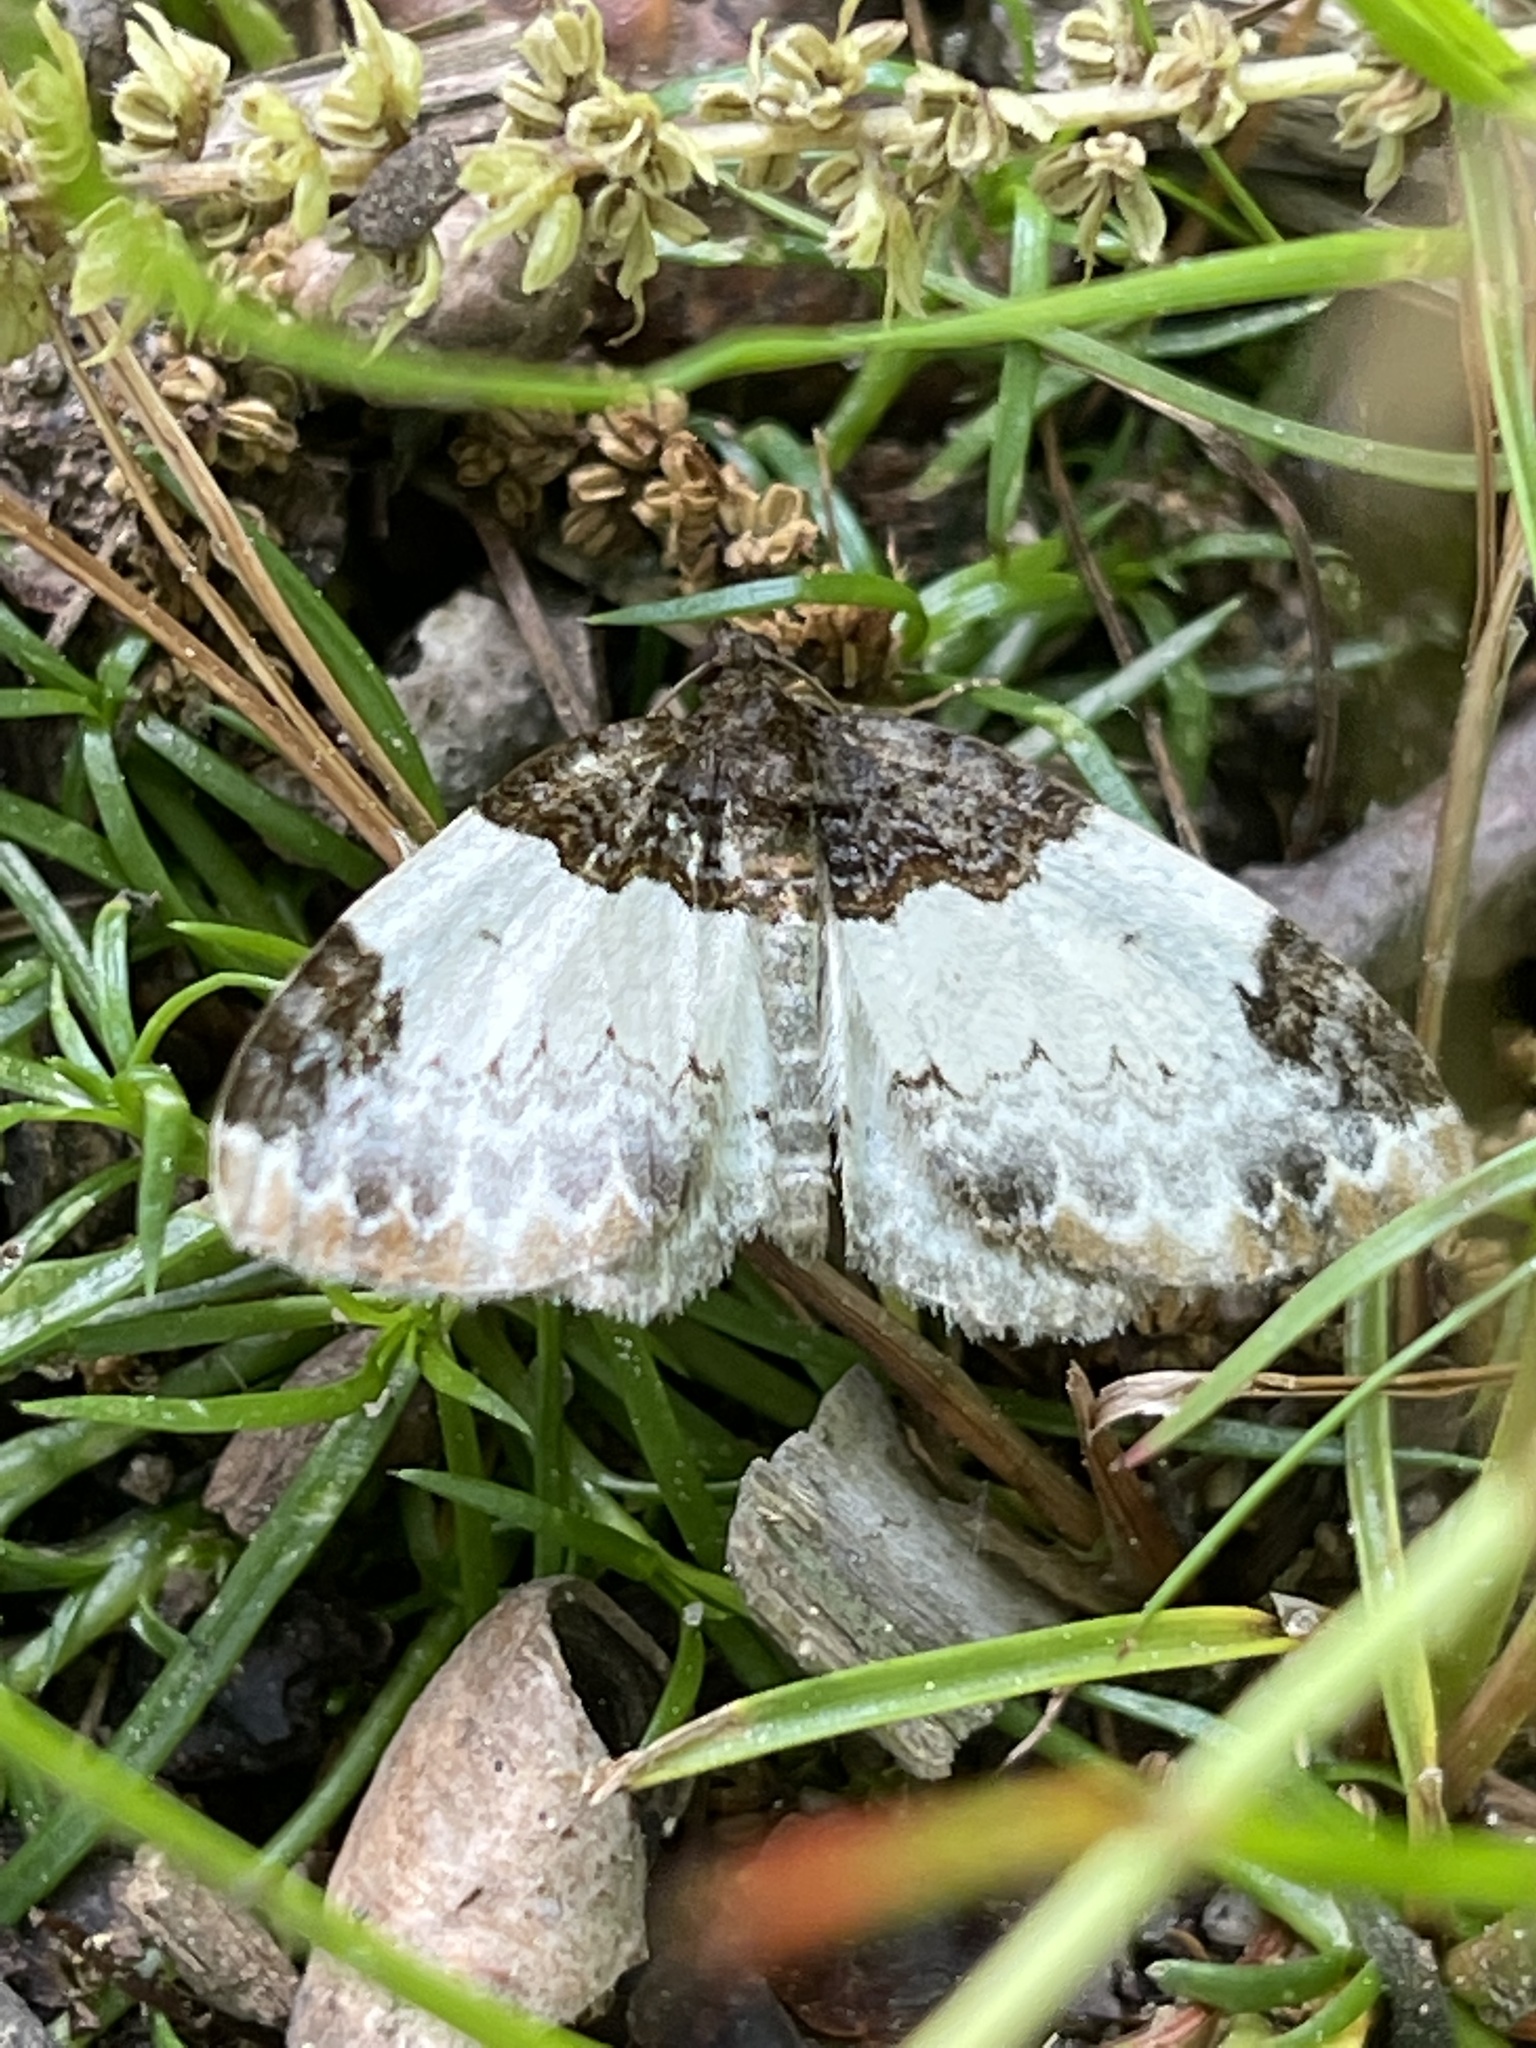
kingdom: Animalia
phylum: Arthropoda
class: Insecta
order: Lepidoptera
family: Geometridae
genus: Mesoleuca
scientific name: Mesoleuca ruficillata
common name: White-ribboned carpet moth
